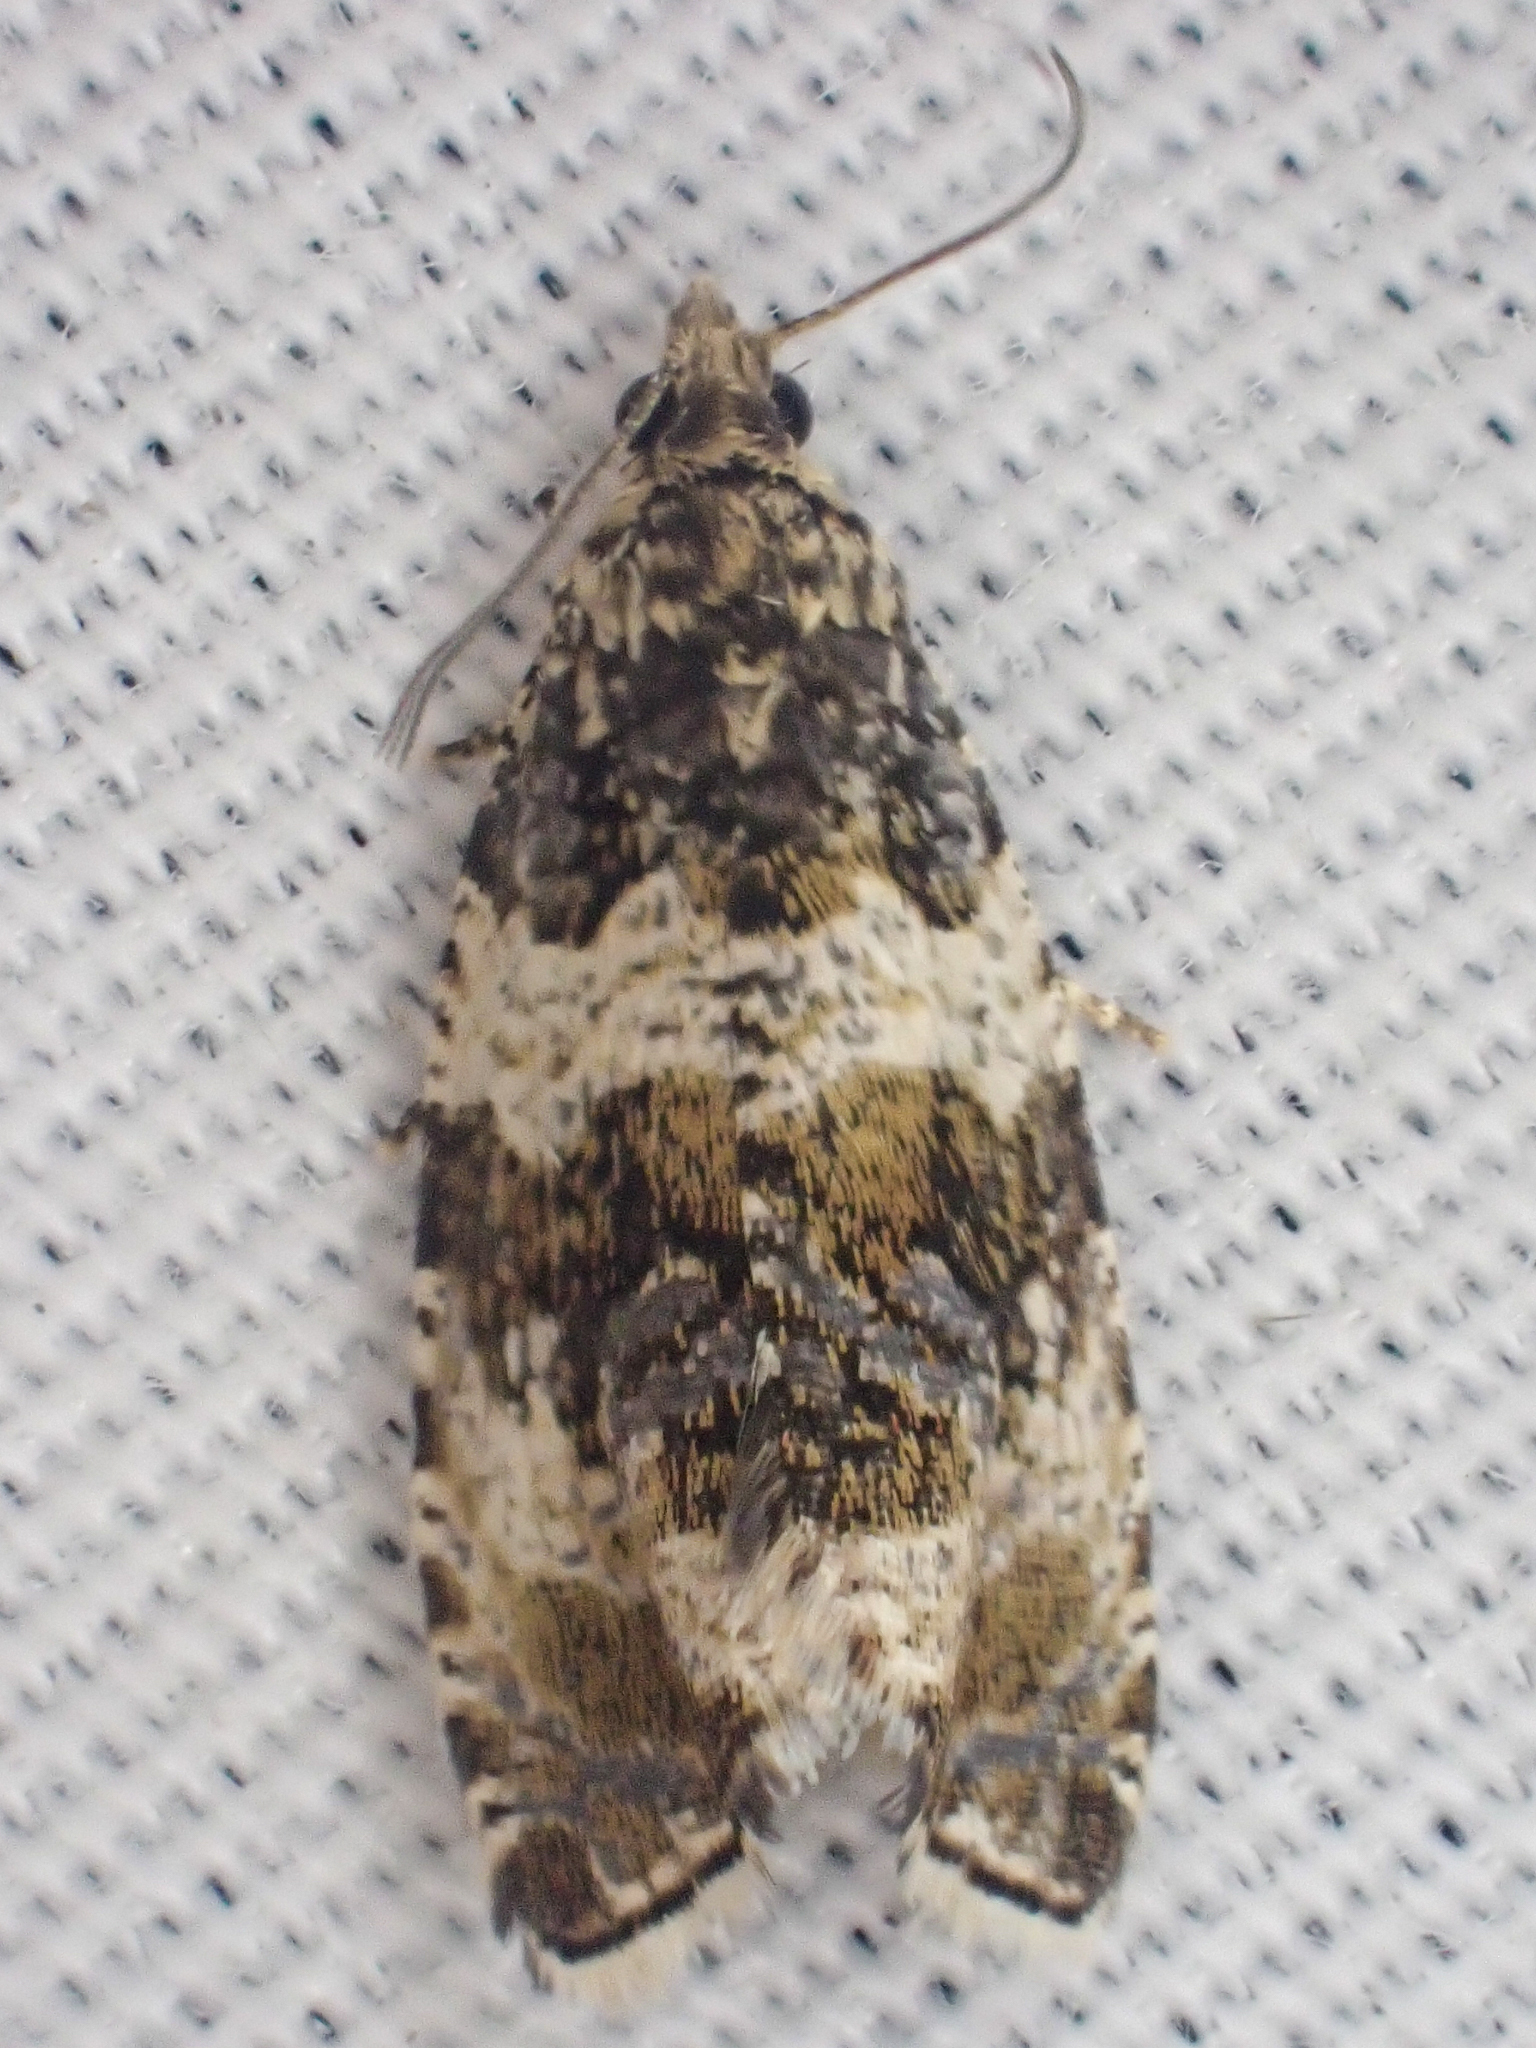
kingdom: Animalia
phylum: Arthropoda
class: Insecta
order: Lepidoptera
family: Tortricidae
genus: Celypha
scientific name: Celypha cespitana
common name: Thyme marble
